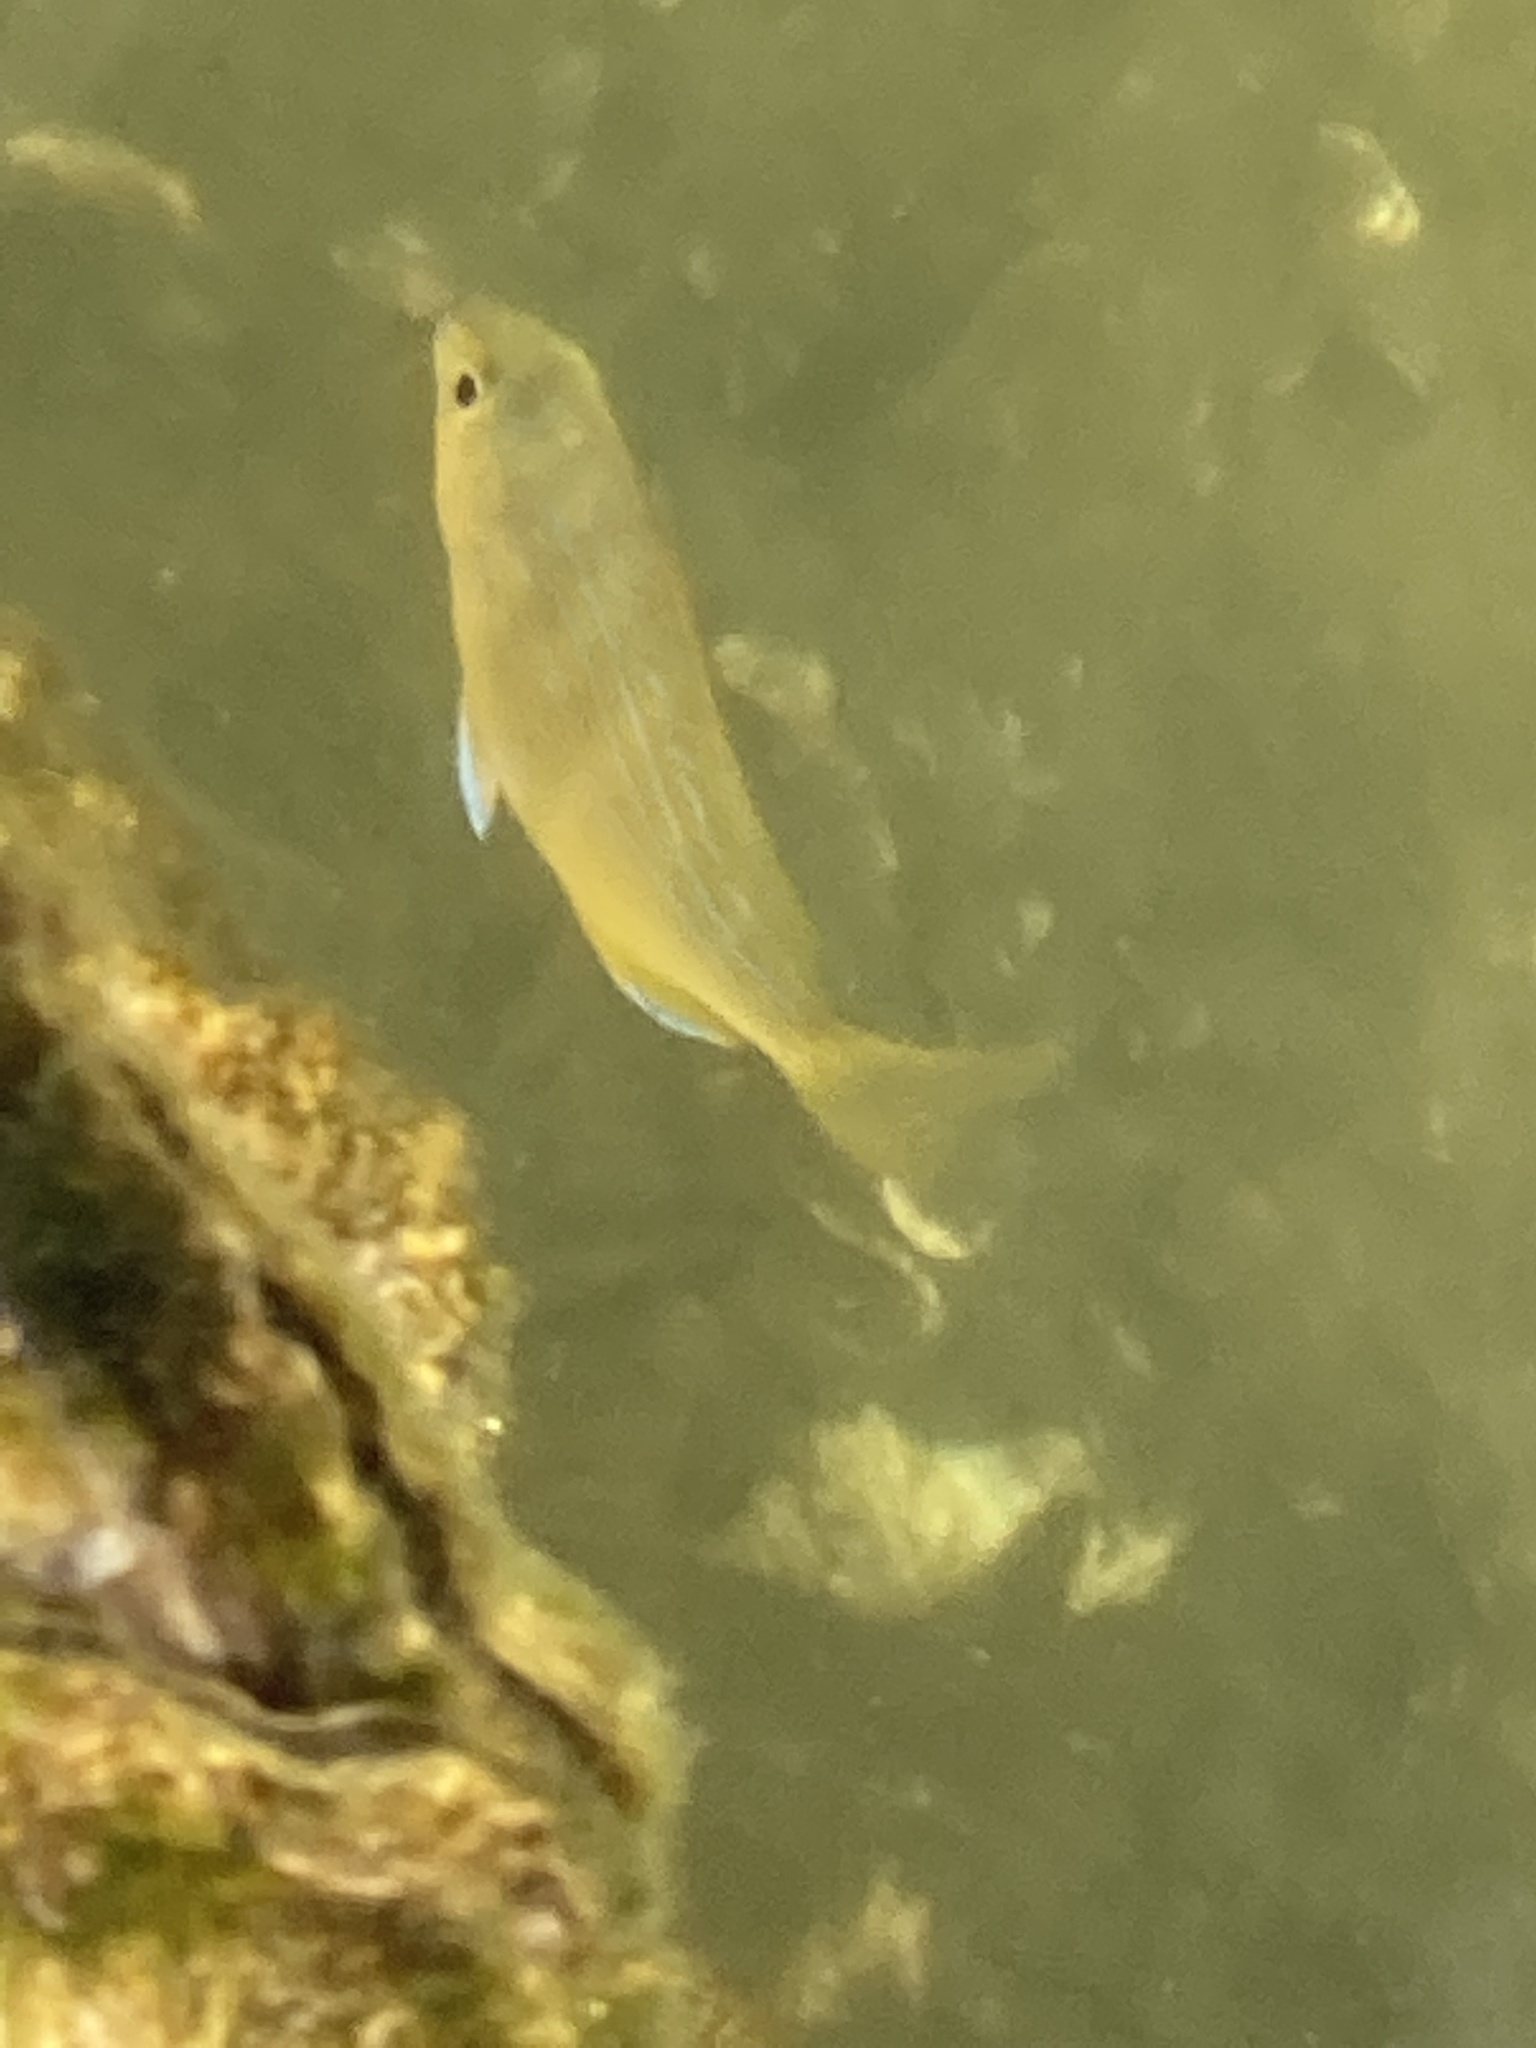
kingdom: Animalia
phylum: Chordata
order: Perciformes
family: Sparidae
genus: Lagodon
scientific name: Lagodon rhomboides
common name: Pinfish
